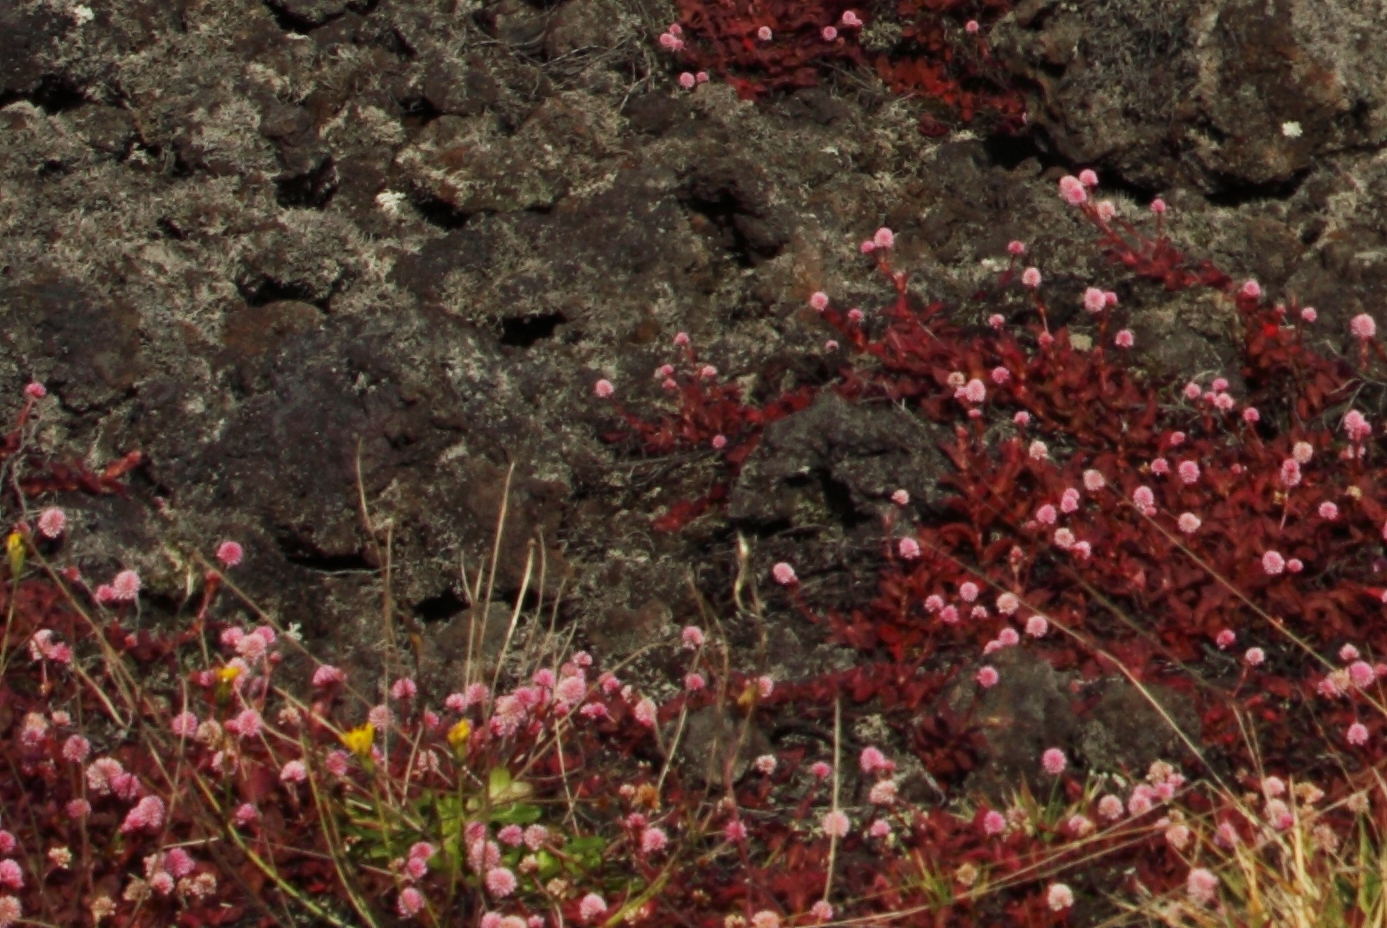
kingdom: Plantae
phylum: Tracheophyta
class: Magnoliopsida
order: Caryophyllales
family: Polygonaceae
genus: Persicaria
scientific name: Persicaria capitata
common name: Pinkhead smartweed
